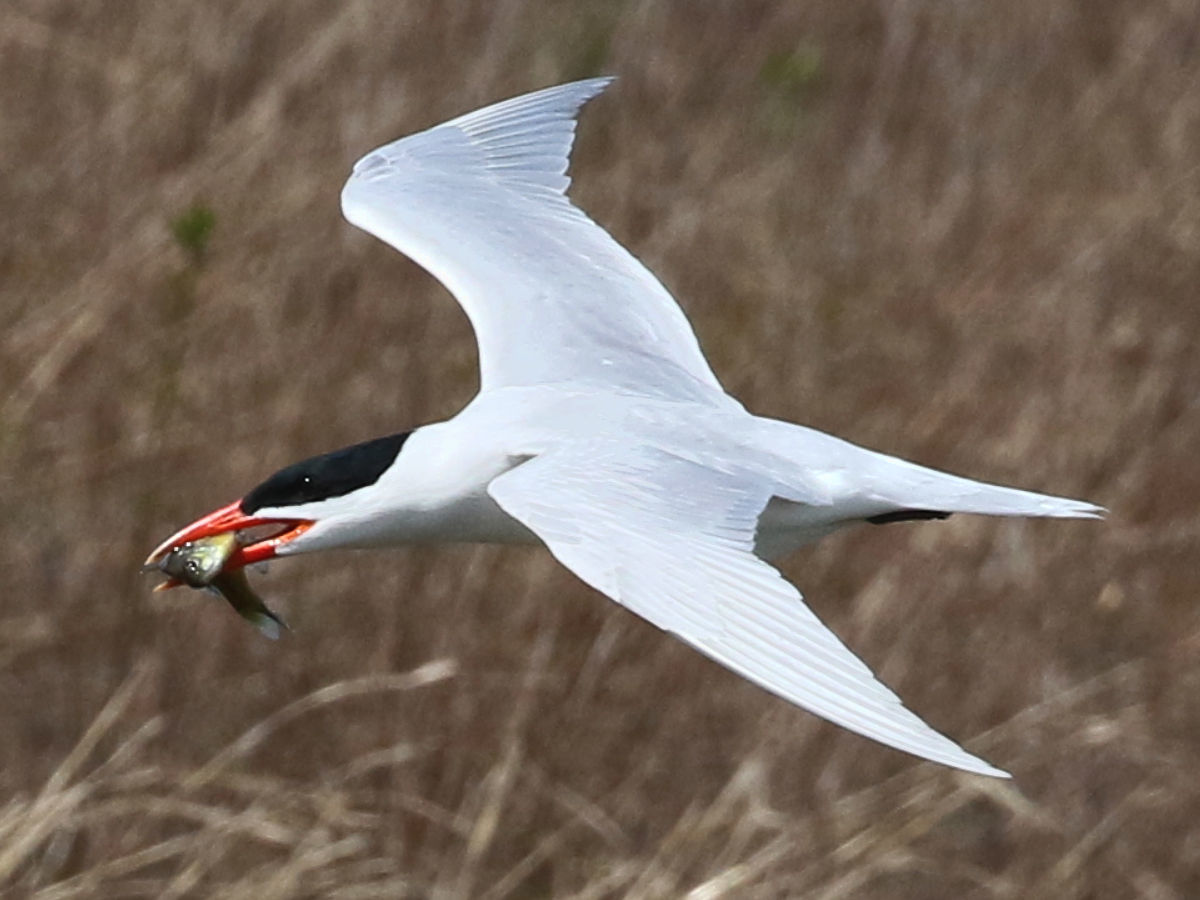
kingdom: Animalia
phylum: Chordata
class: Aves
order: Charadriiformes
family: Laridae
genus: Hydroprogne
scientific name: Hydroprogne caspia
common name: Caspian tern
